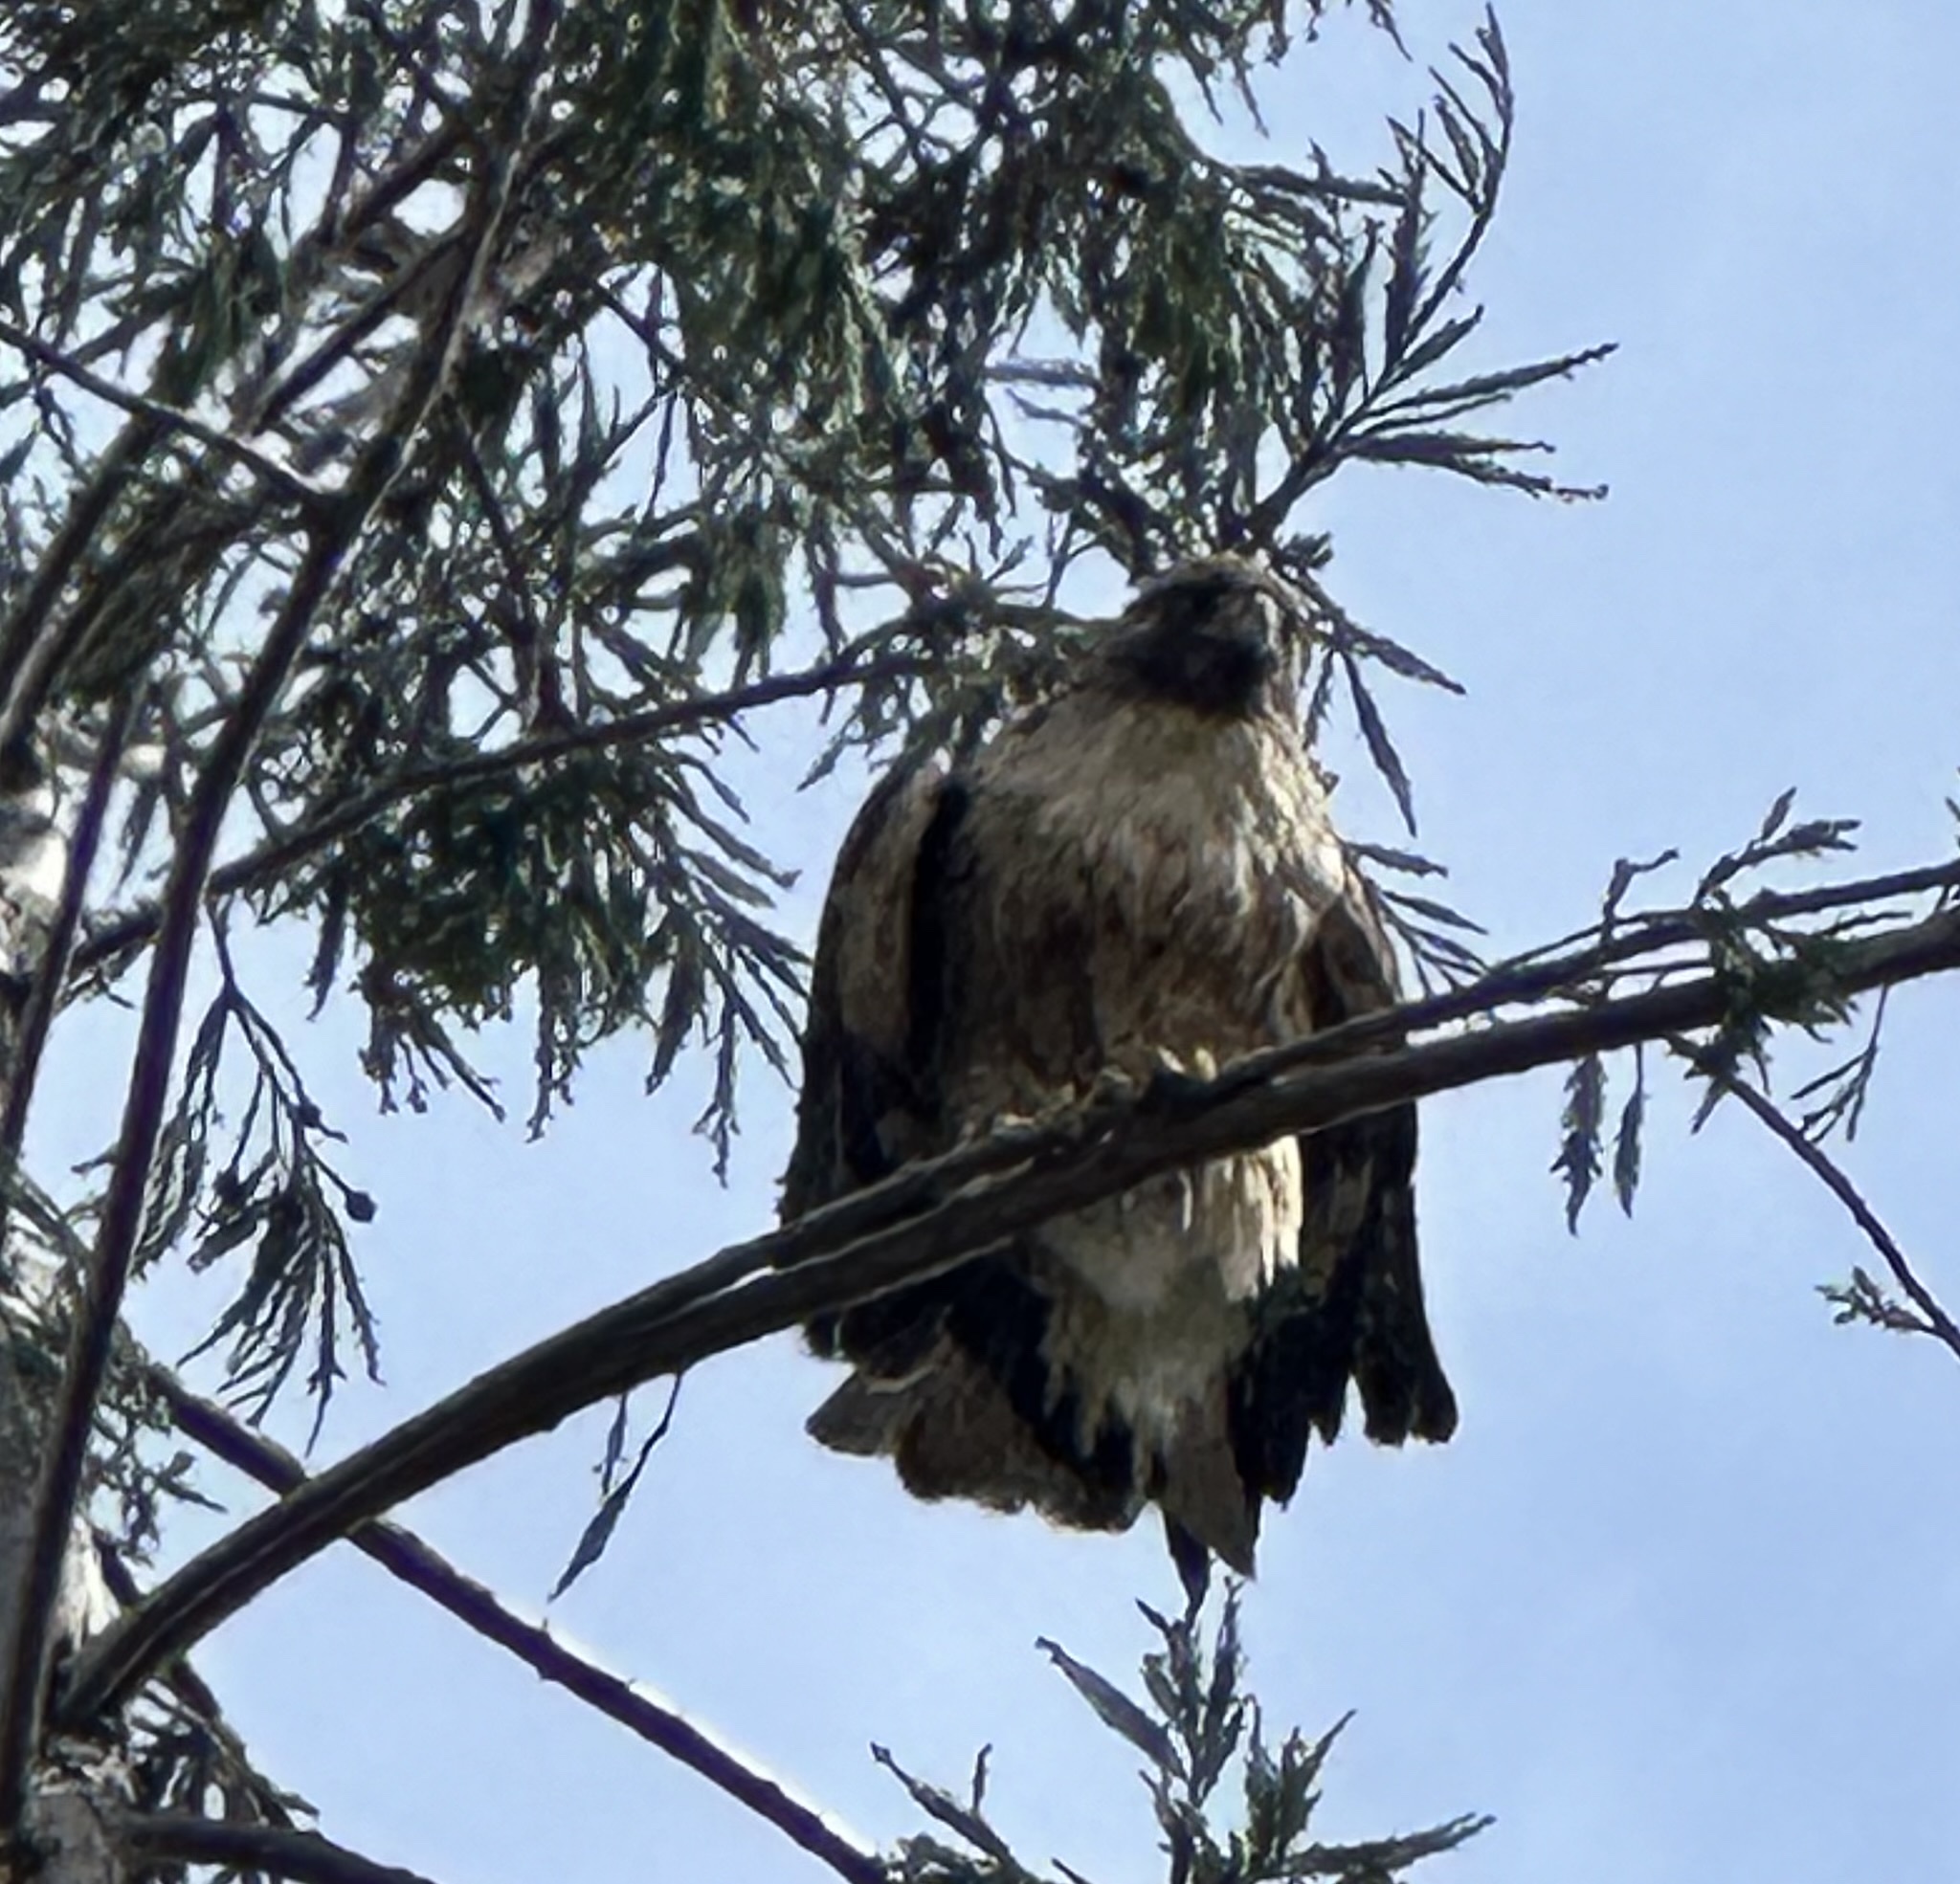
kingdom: Animalia
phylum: Chordata
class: Aves
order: Accipitriformes
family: Accipitridae
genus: Buteo
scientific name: Buteo jamaicensis
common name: Red-tailed hawk
